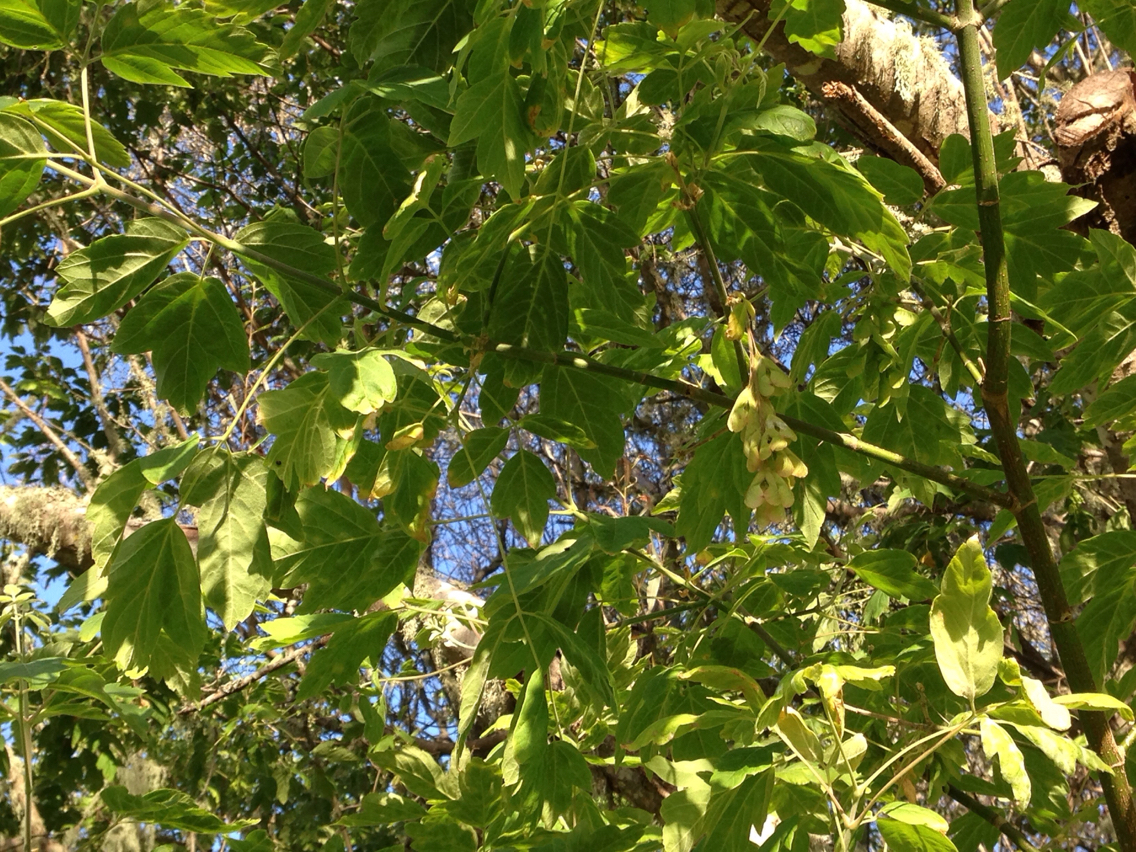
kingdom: Plantae
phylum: Tracheophyta
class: Magnoliopsida
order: Sapindales
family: Sapindaceae
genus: Acer
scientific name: Acer negundo
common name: Ashleaf maple
